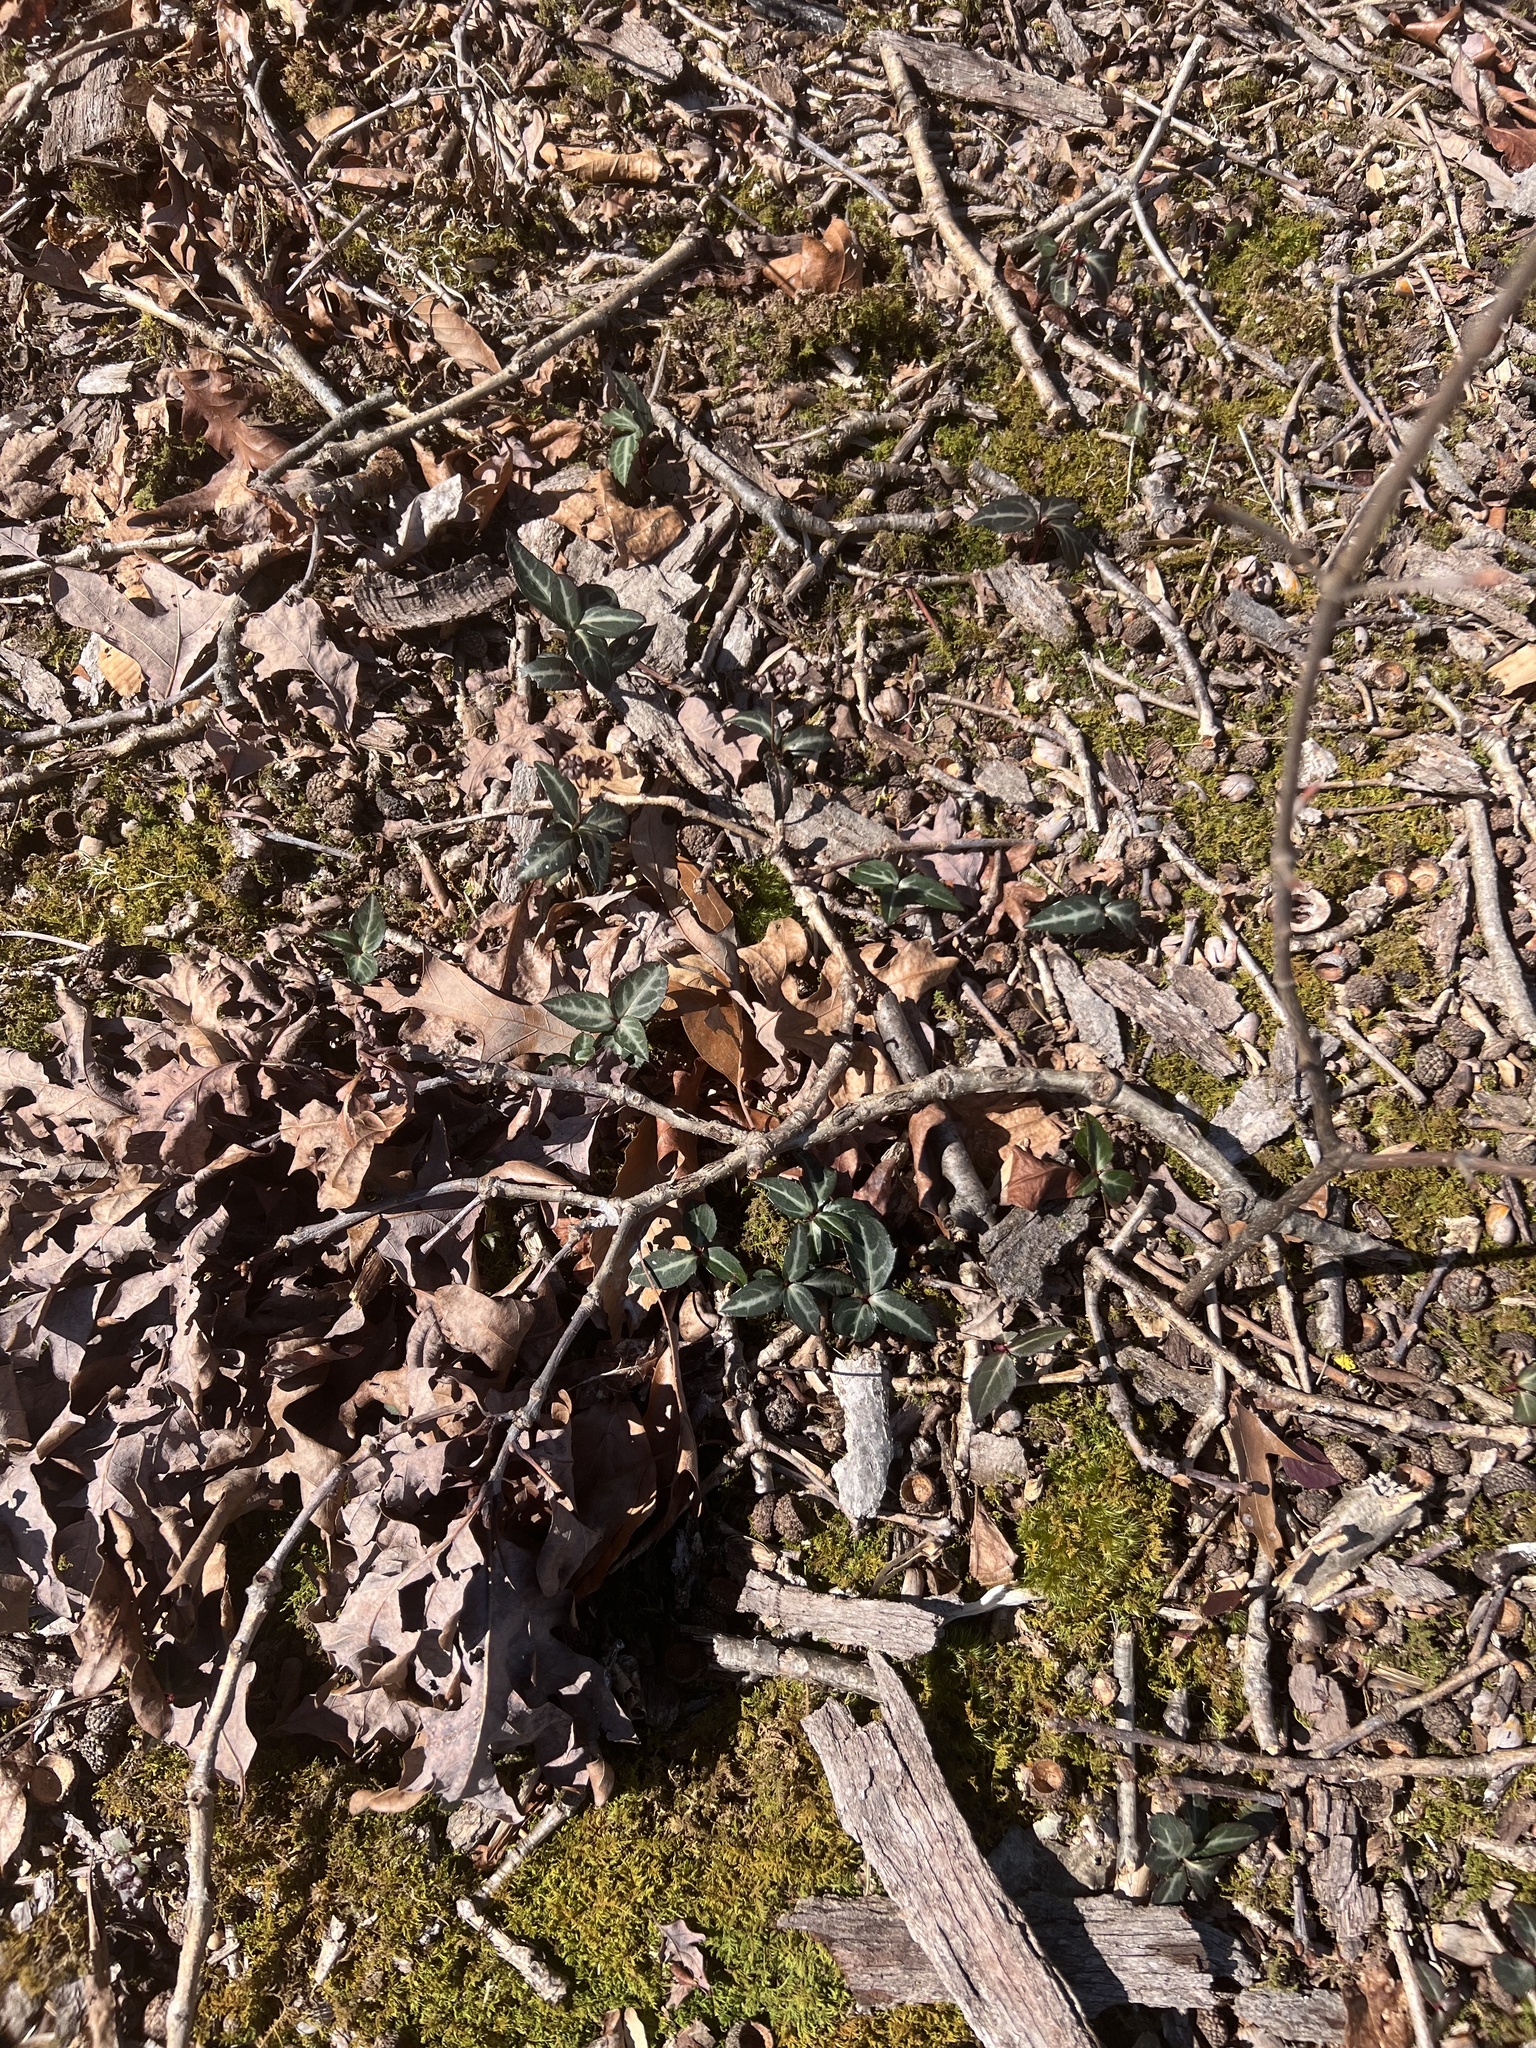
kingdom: Plantae
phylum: Tracheophyta
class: Magnoliopsida
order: Ericales
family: Ericaceae
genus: Chimaphila
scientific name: Chimaphila maculata
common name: Spotted pipsissewa
